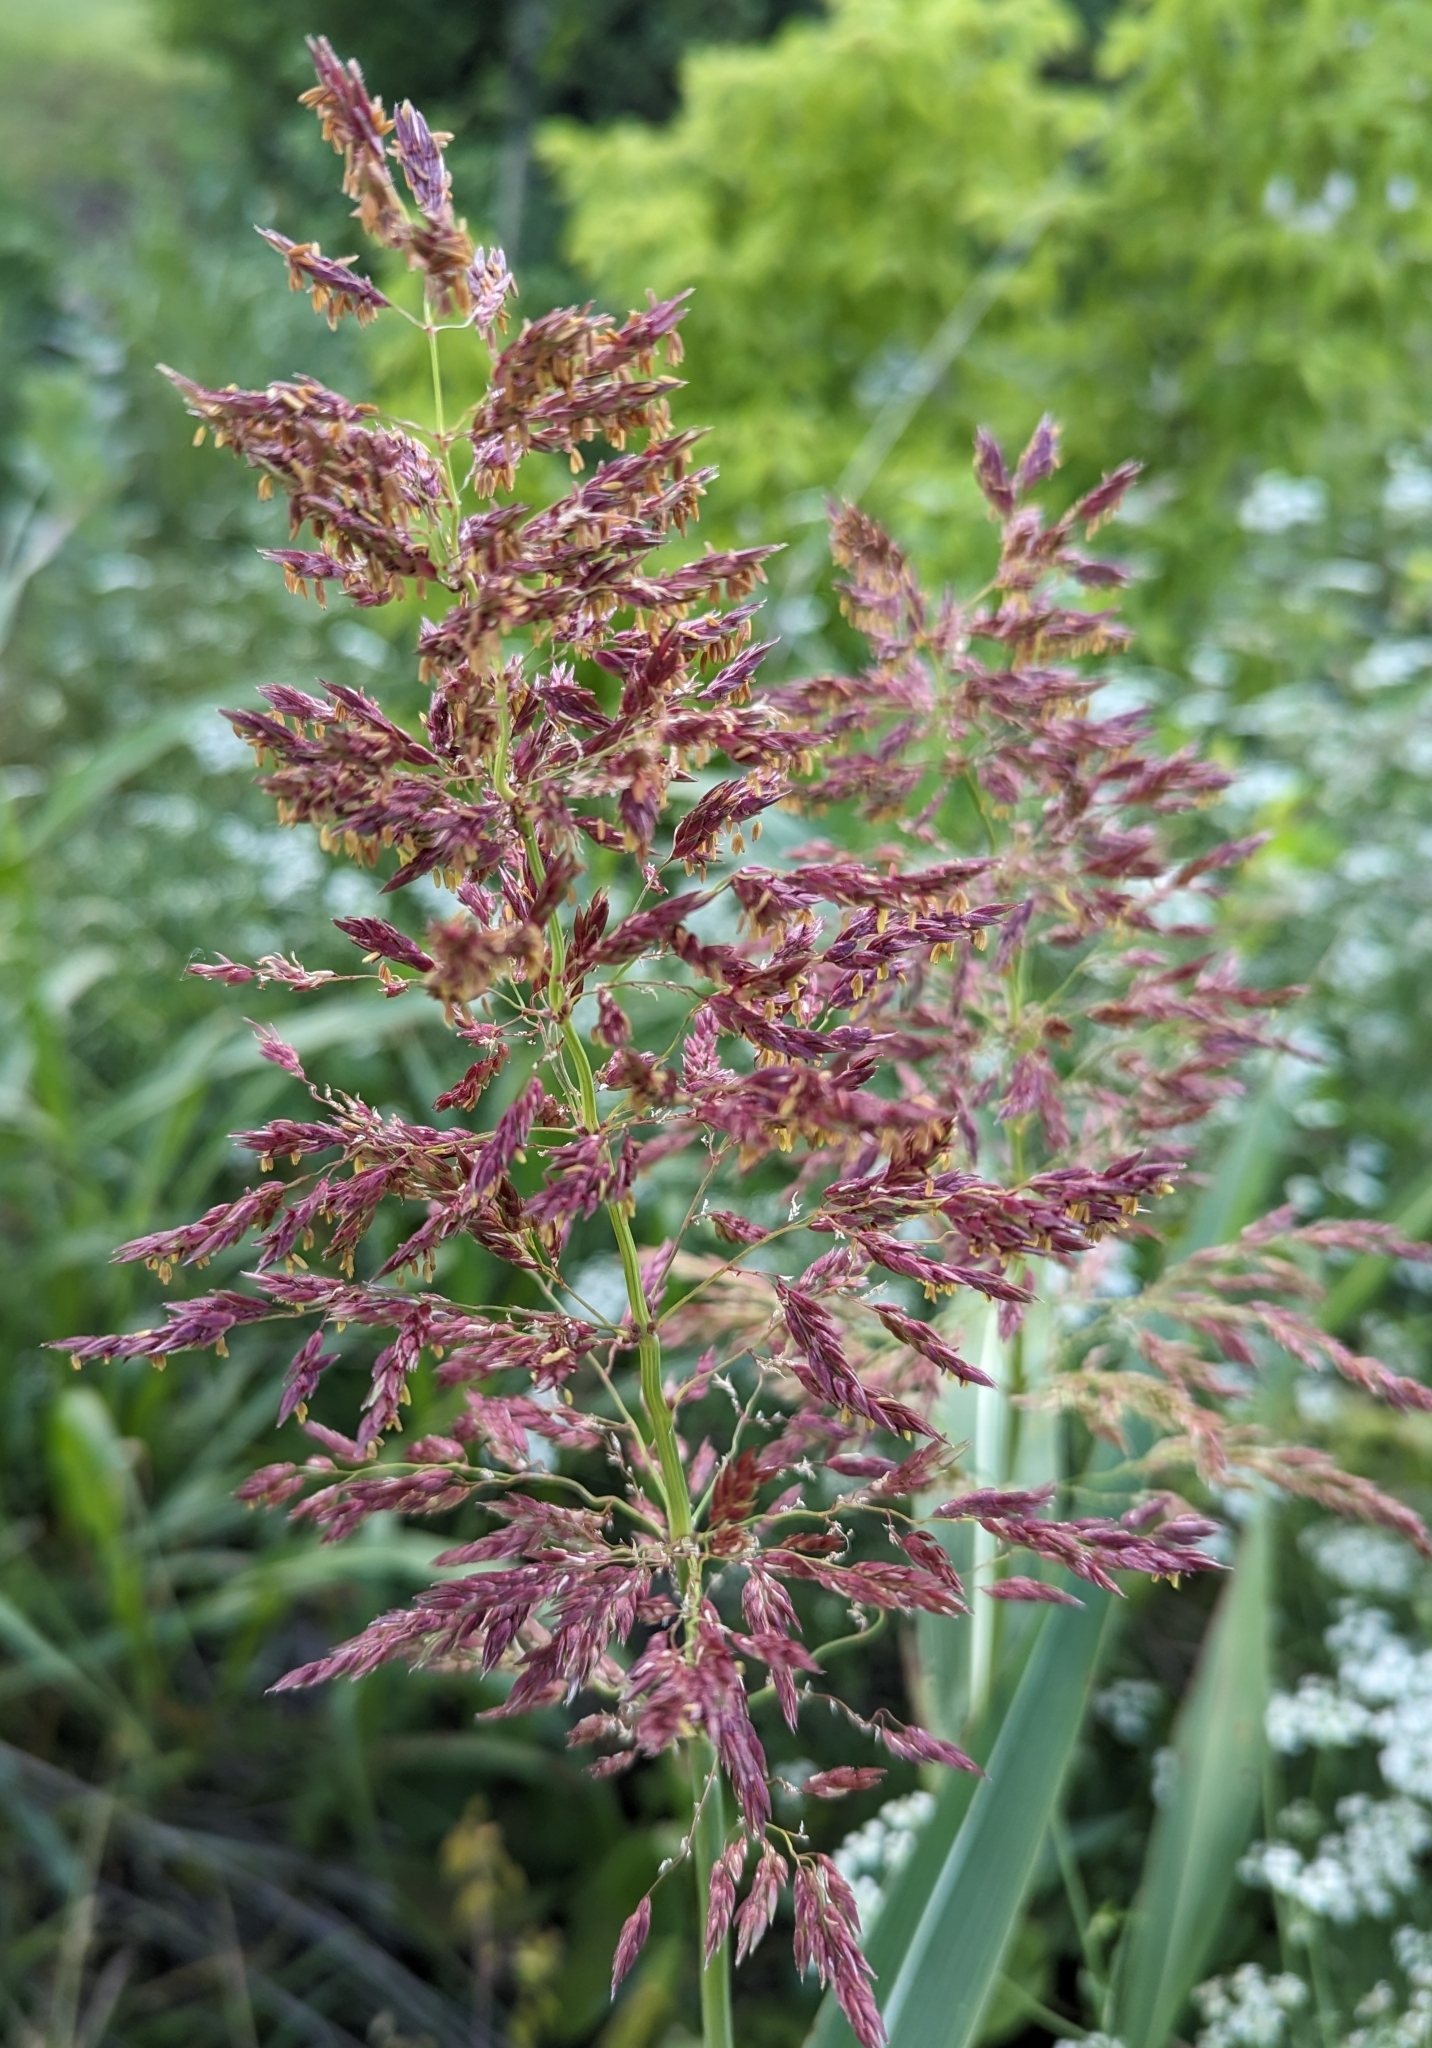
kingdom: Plantae
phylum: Tracheophyta
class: Liliopsida
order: Poales
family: Poaceae
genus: Sorghum
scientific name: Sorghum halepense
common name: Johnson-grass
